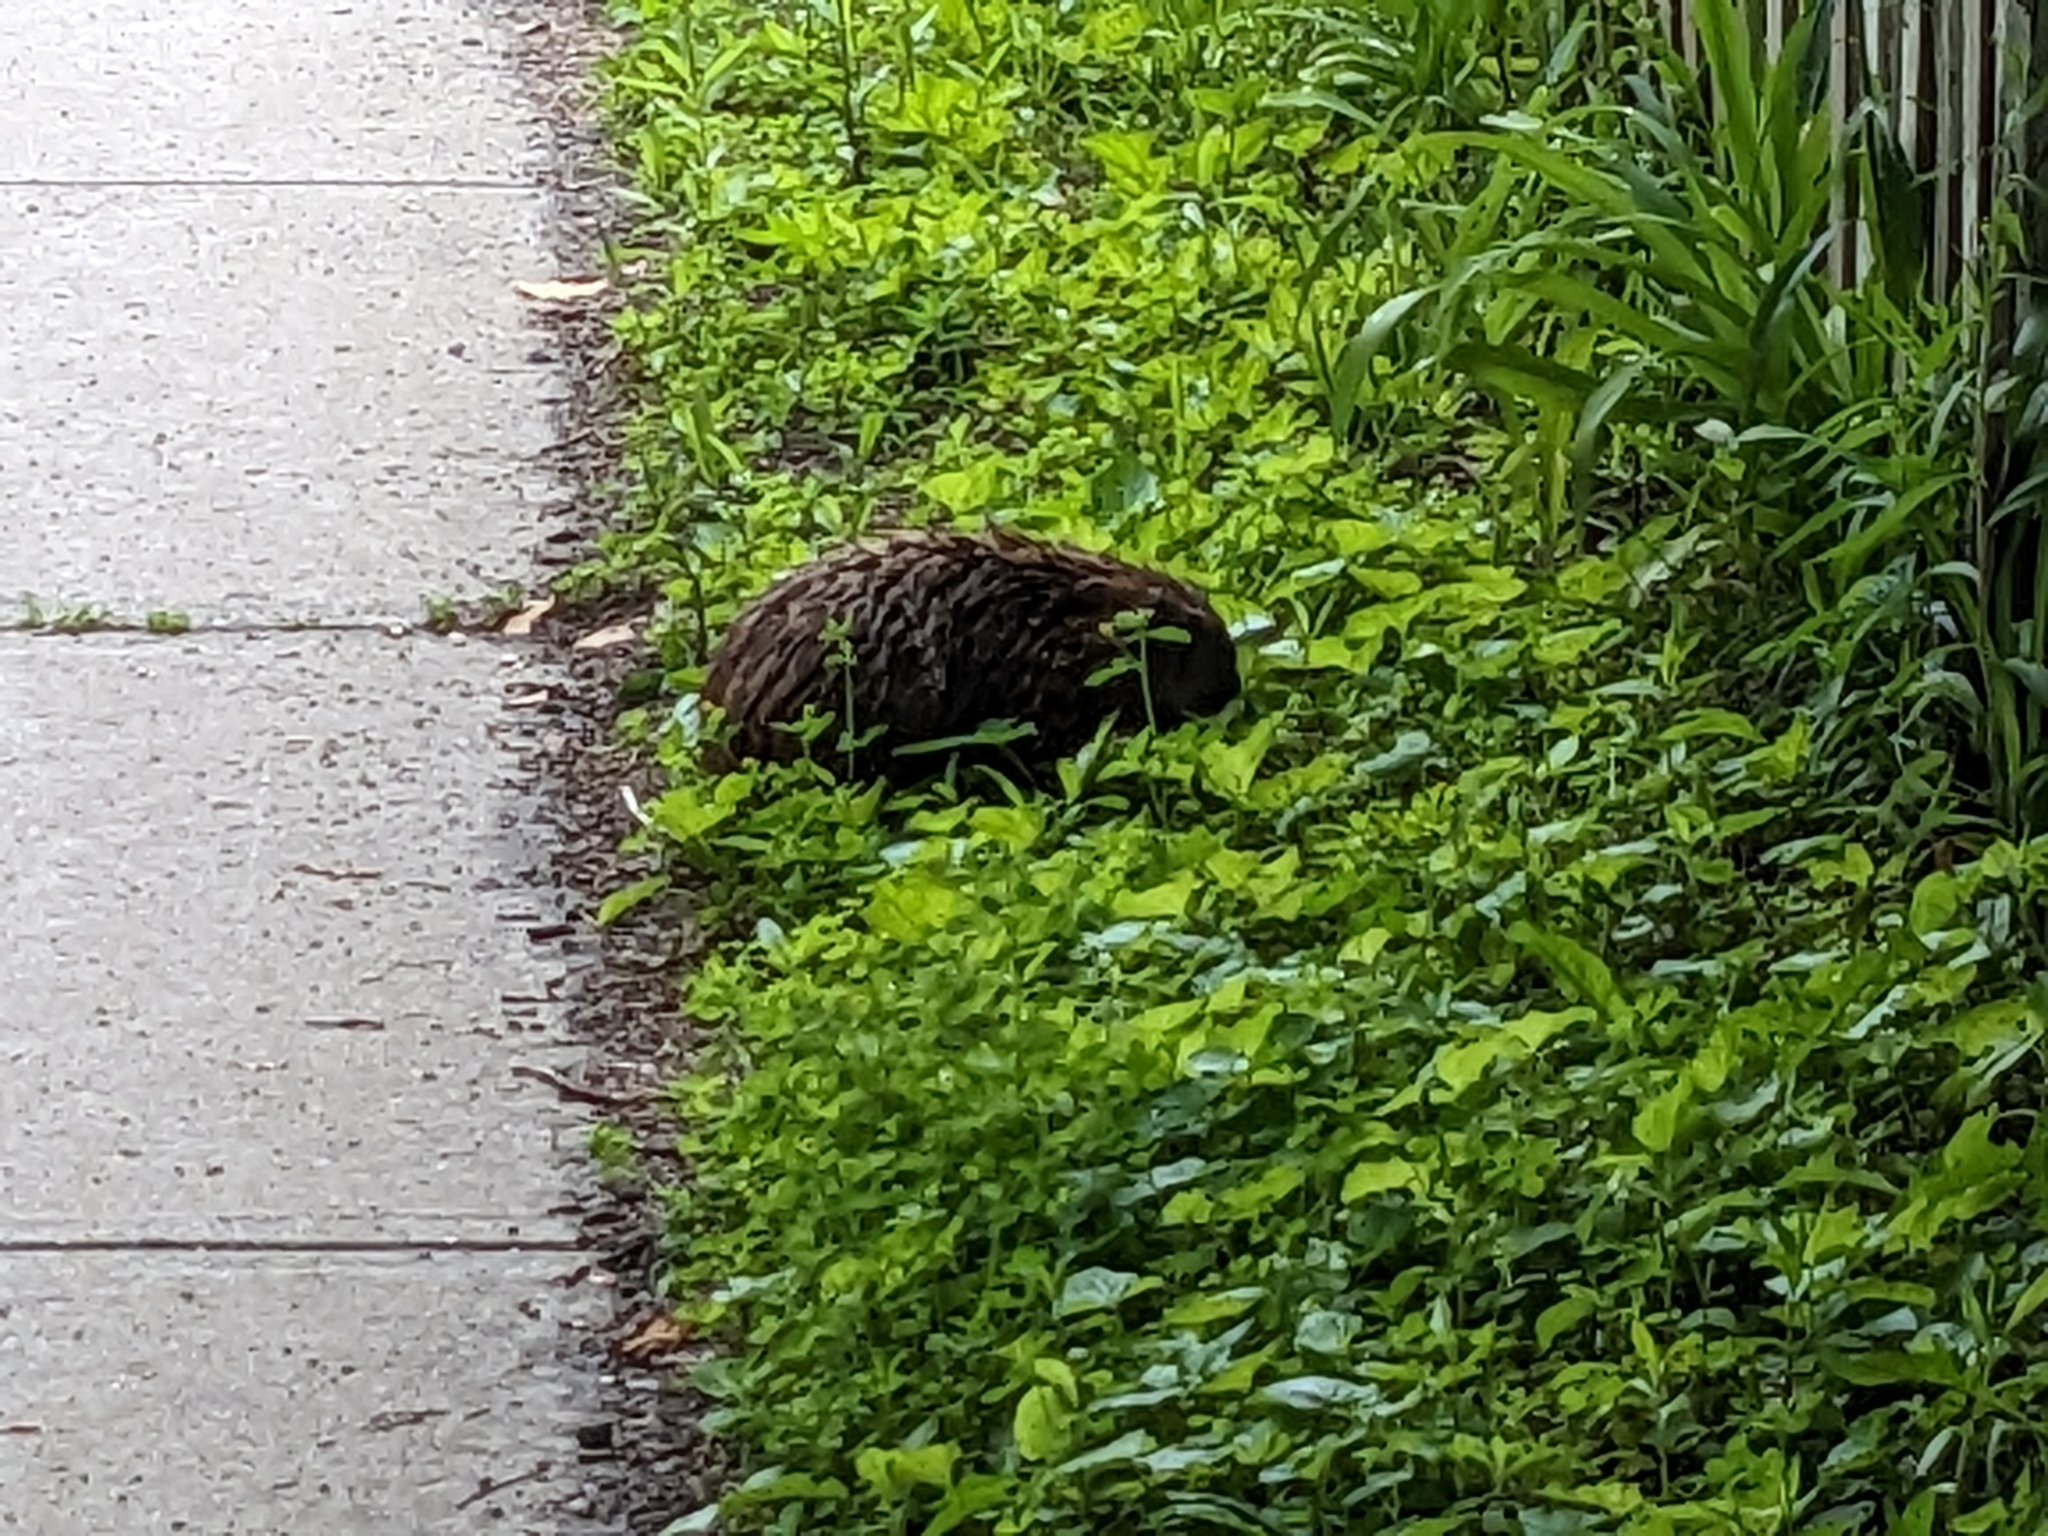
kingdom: Animalia
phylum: Chordata
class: Mammalia
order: Rodentia
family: Sciuridae
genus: Marmota
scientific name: Marmota monax
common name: Groundhog
